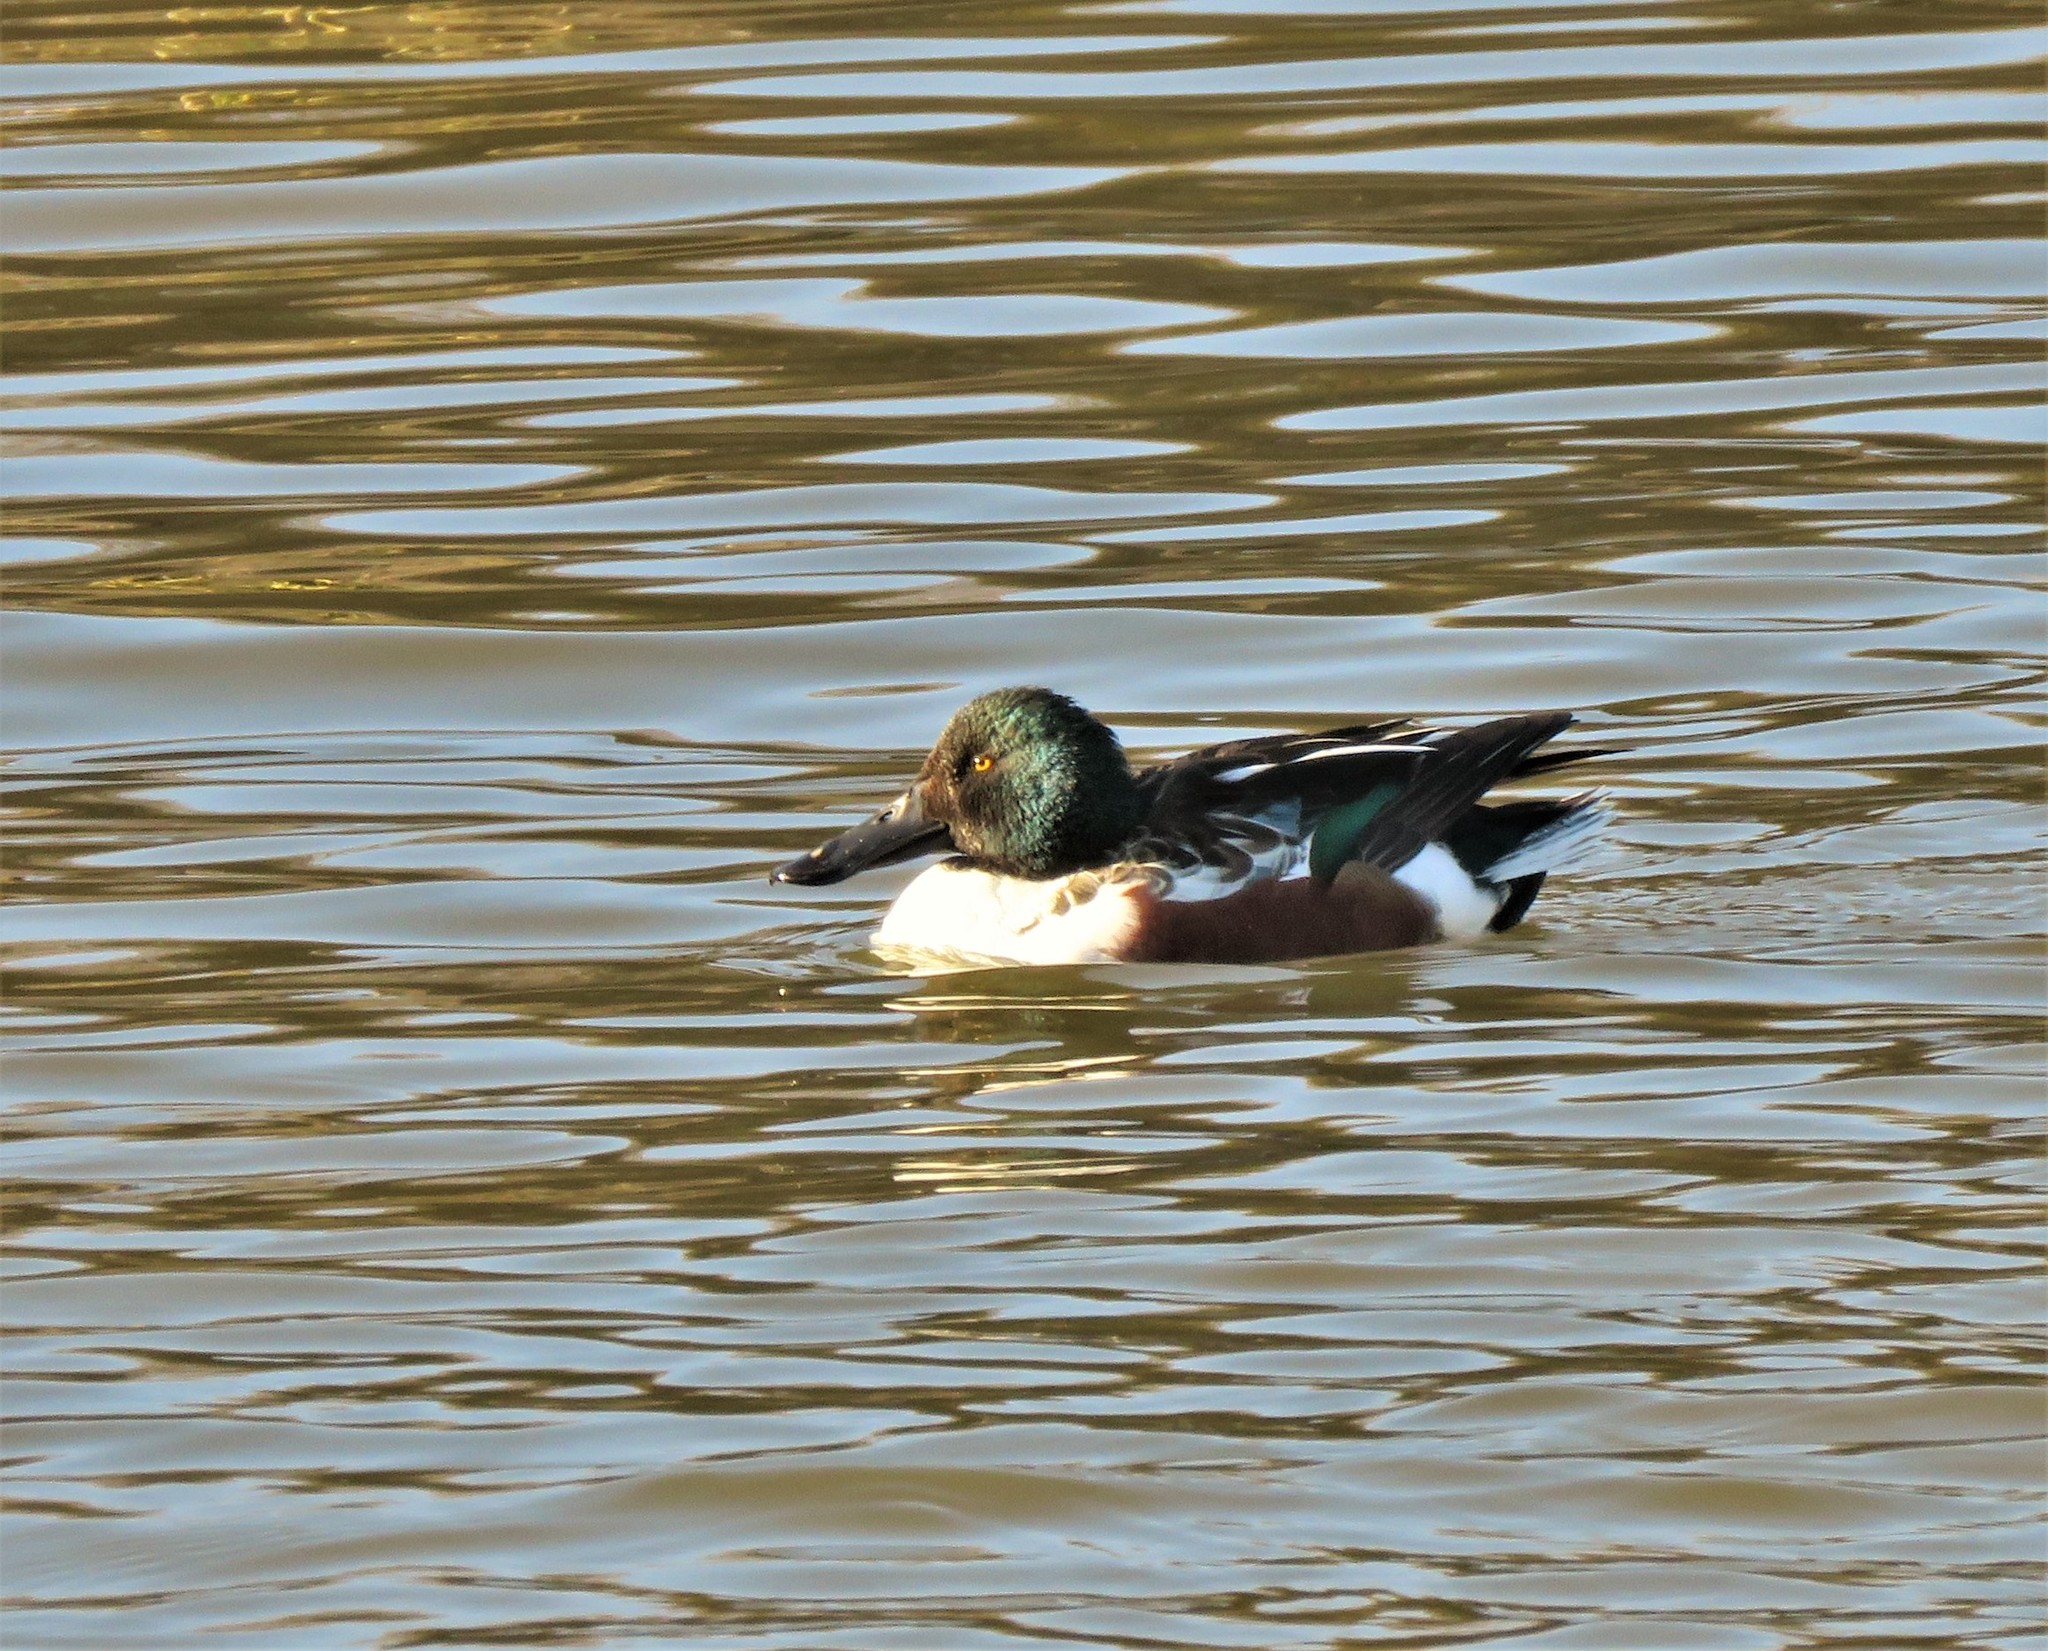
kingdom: Animalia
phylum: Chordata
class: Aves
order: Anseriformes
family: Anatidae
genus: Spatula
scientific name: Spatula clypeata
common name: Northern shoveler
